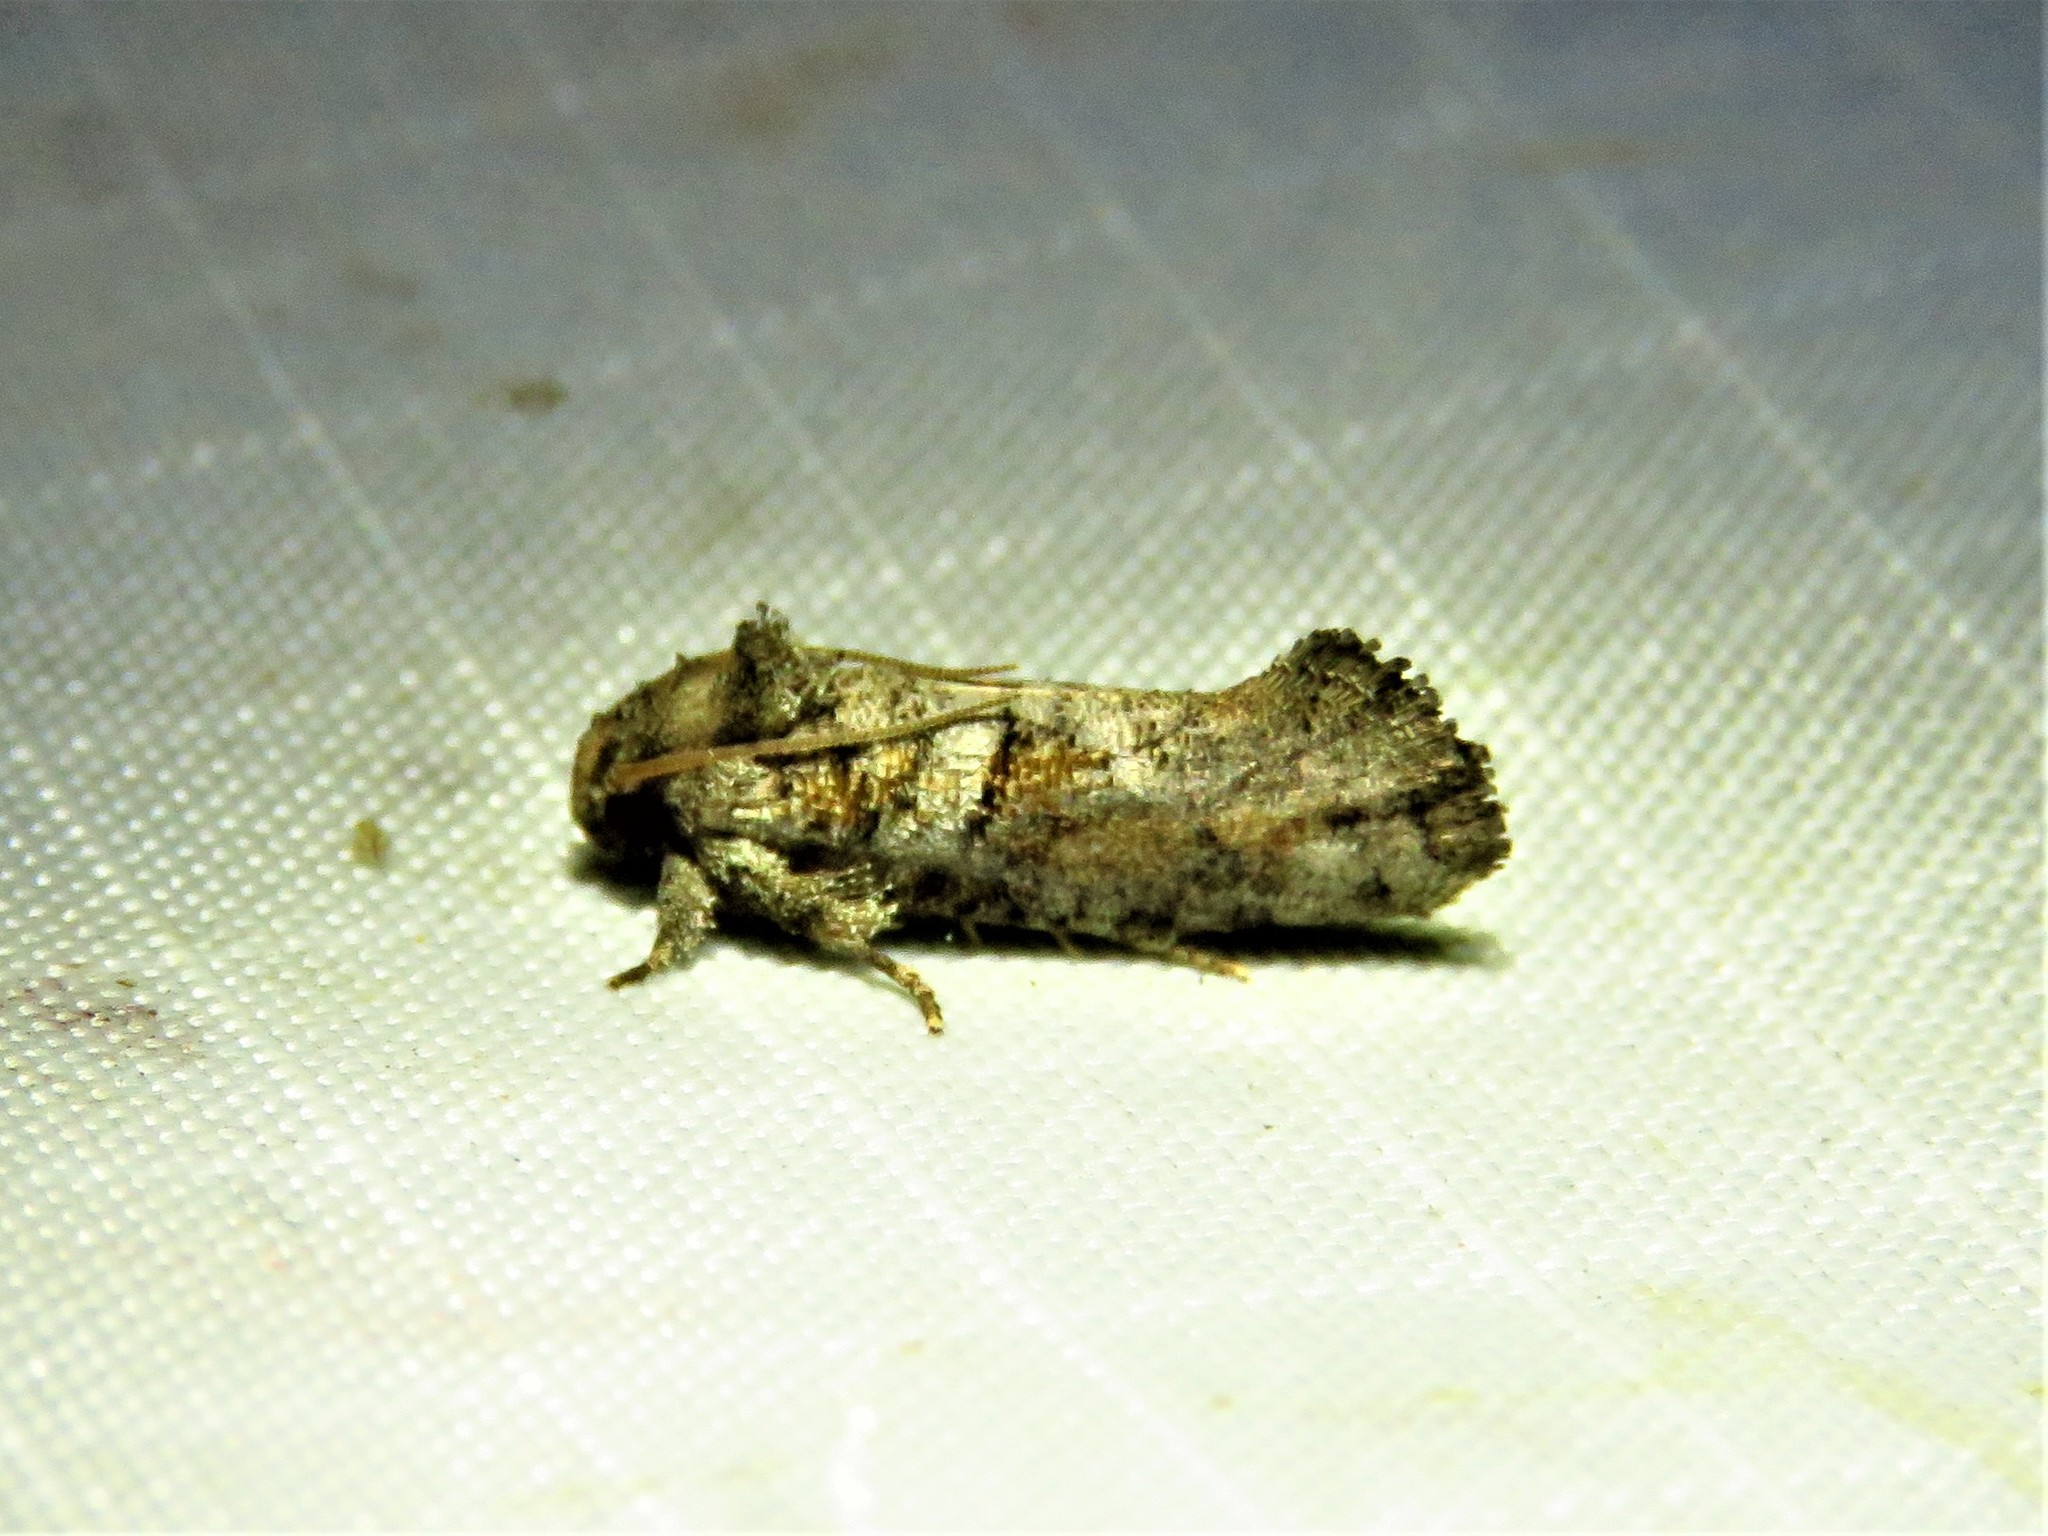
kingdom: Animalia
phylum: Arthropoda
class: Insecta
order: Lepidoptera
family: Tineidae
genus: Acrolophus
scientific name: Acrolophus piger
